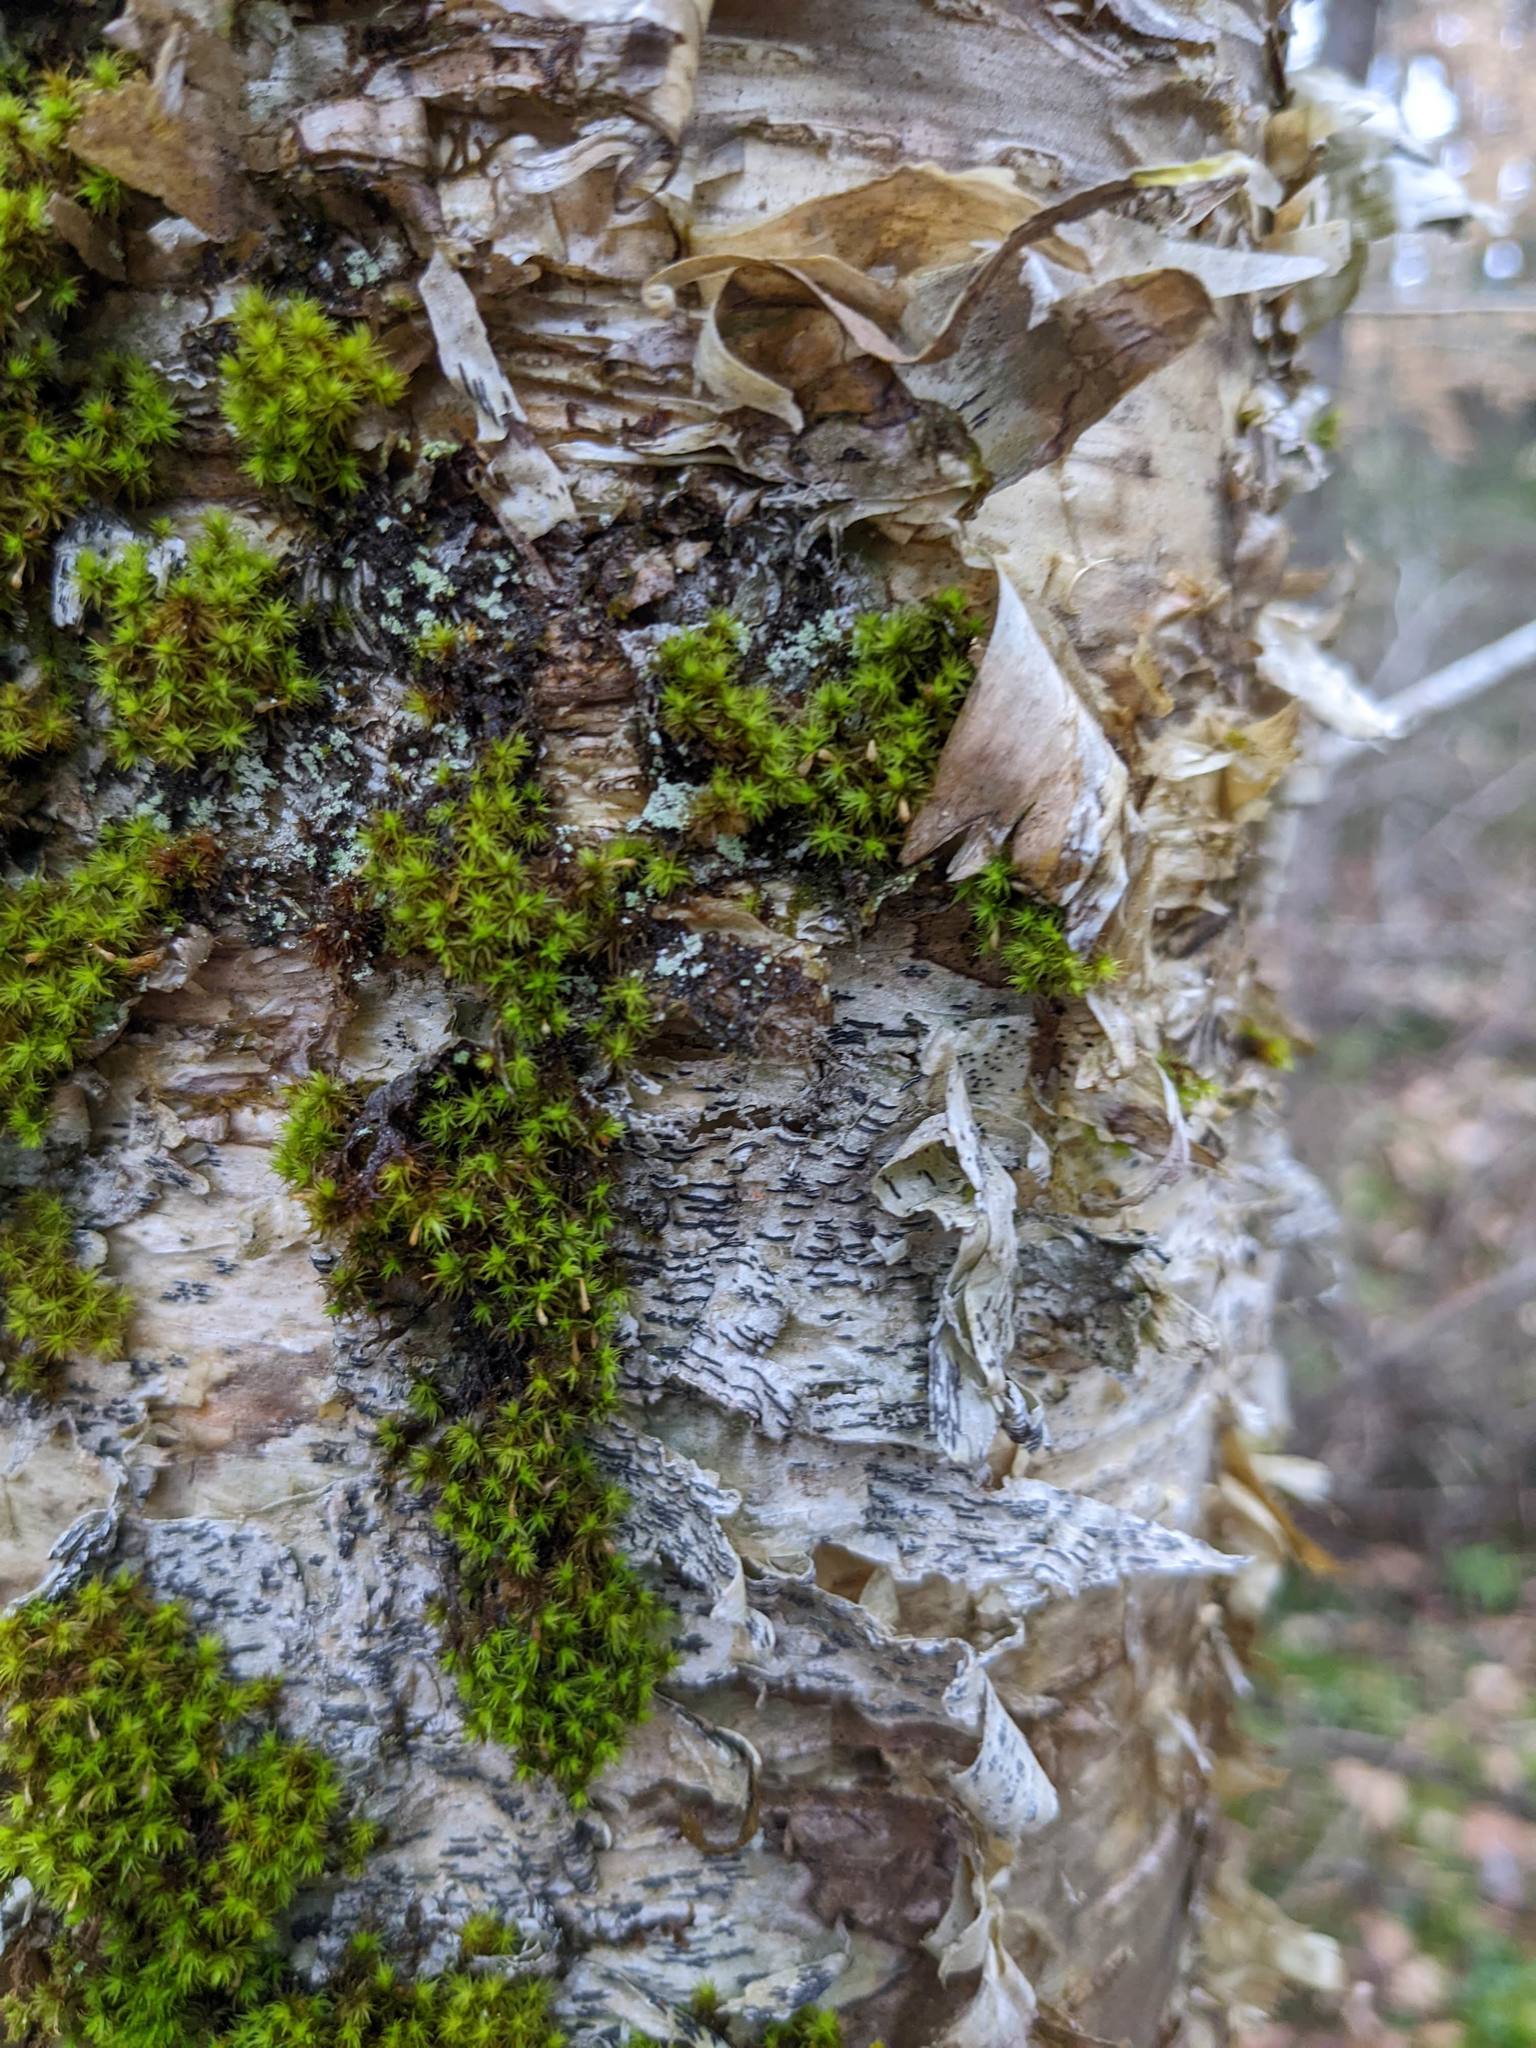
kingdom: Fungi
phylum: Ascomycota
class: Lecanoromycetes
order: Ostropales
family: Graphidaceae
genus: Graphis
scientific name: Graphis scripta
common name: Script lichen
